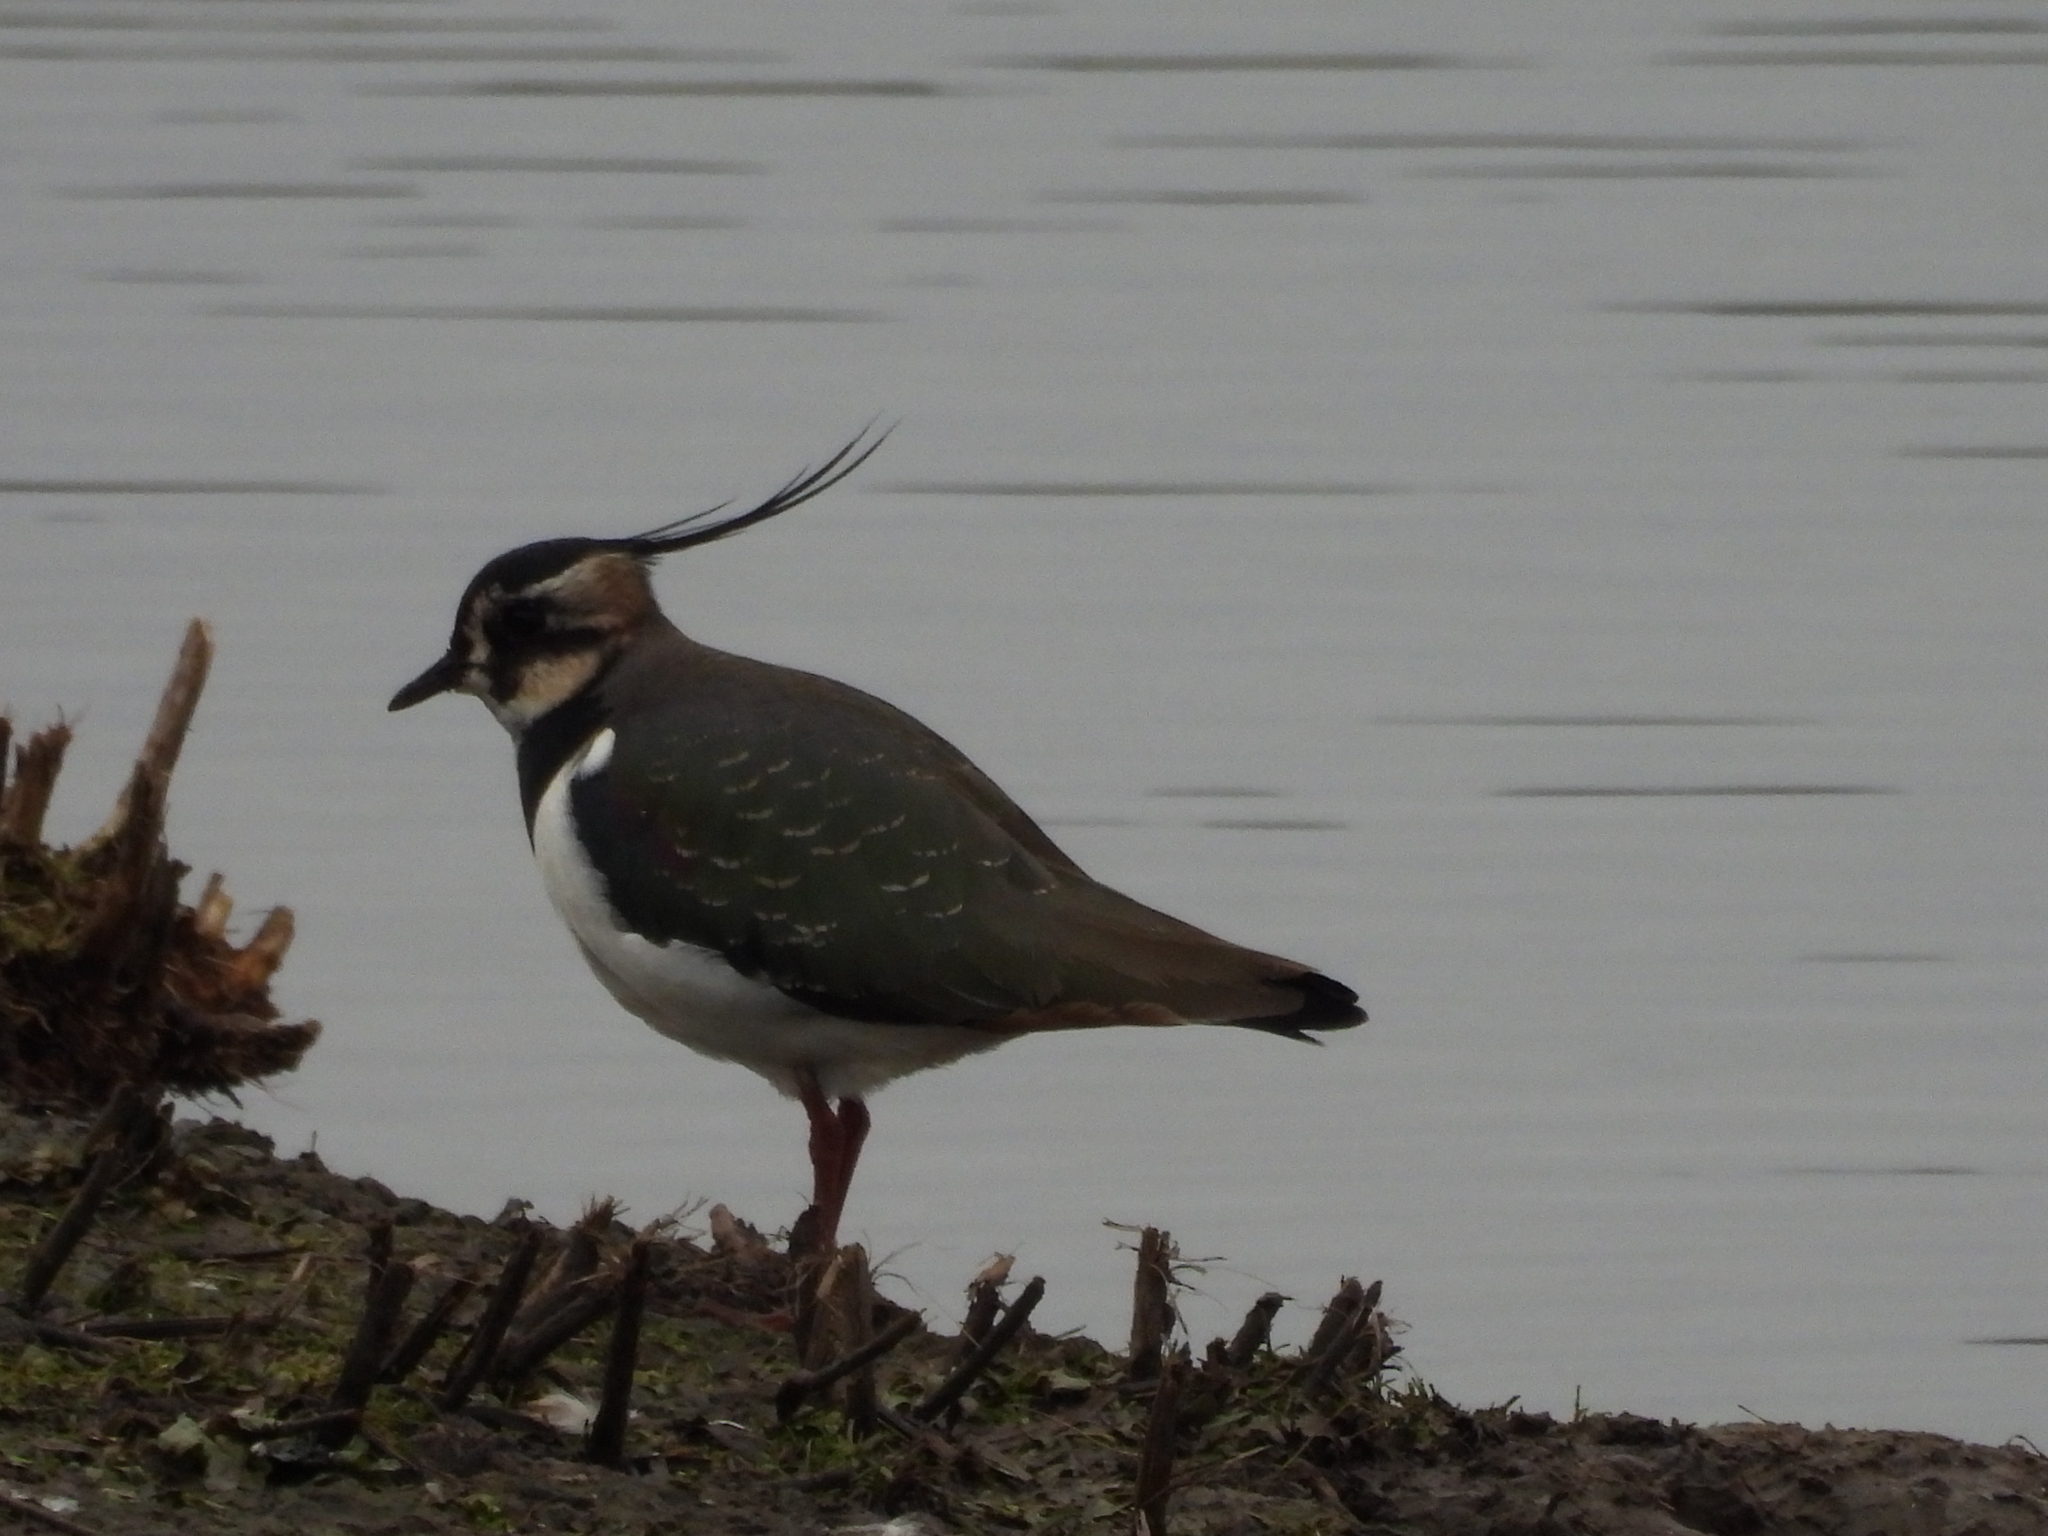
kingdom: Animalia
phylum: Chordata
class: Aves
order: Charadriiformes
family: Charadriidae
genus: Vanellus
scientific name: Vanellus vanellus
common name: Northern lapwing
